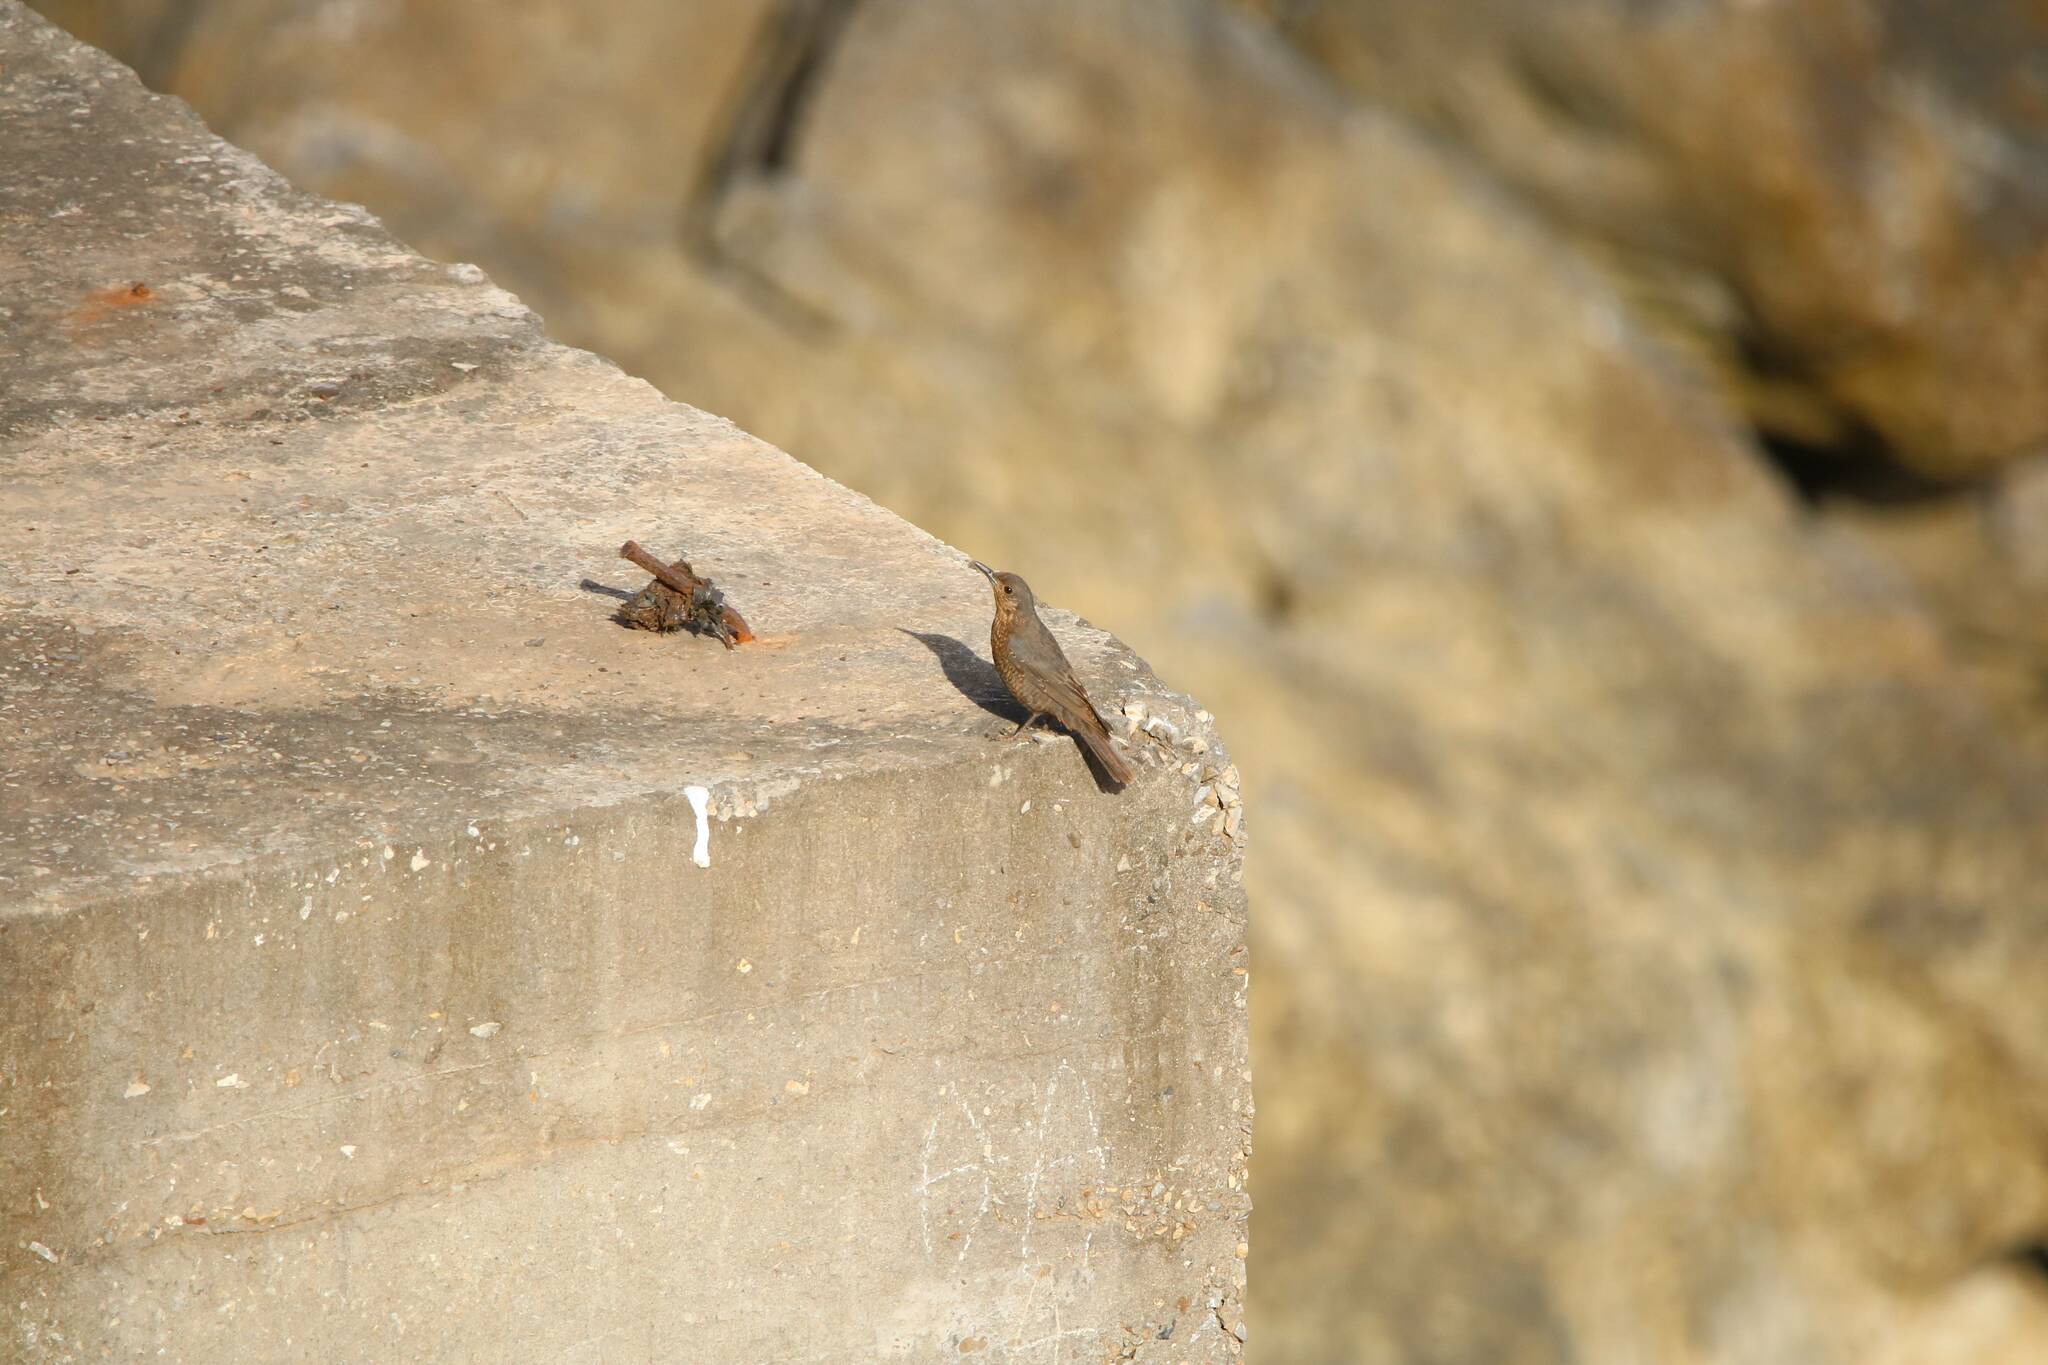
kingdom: Animalia
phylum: Chordata
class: Aves
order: Passeriformes
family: Muscicapidae
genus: Monticola
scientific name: Monticola solitarius
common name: Blue rock thrush
